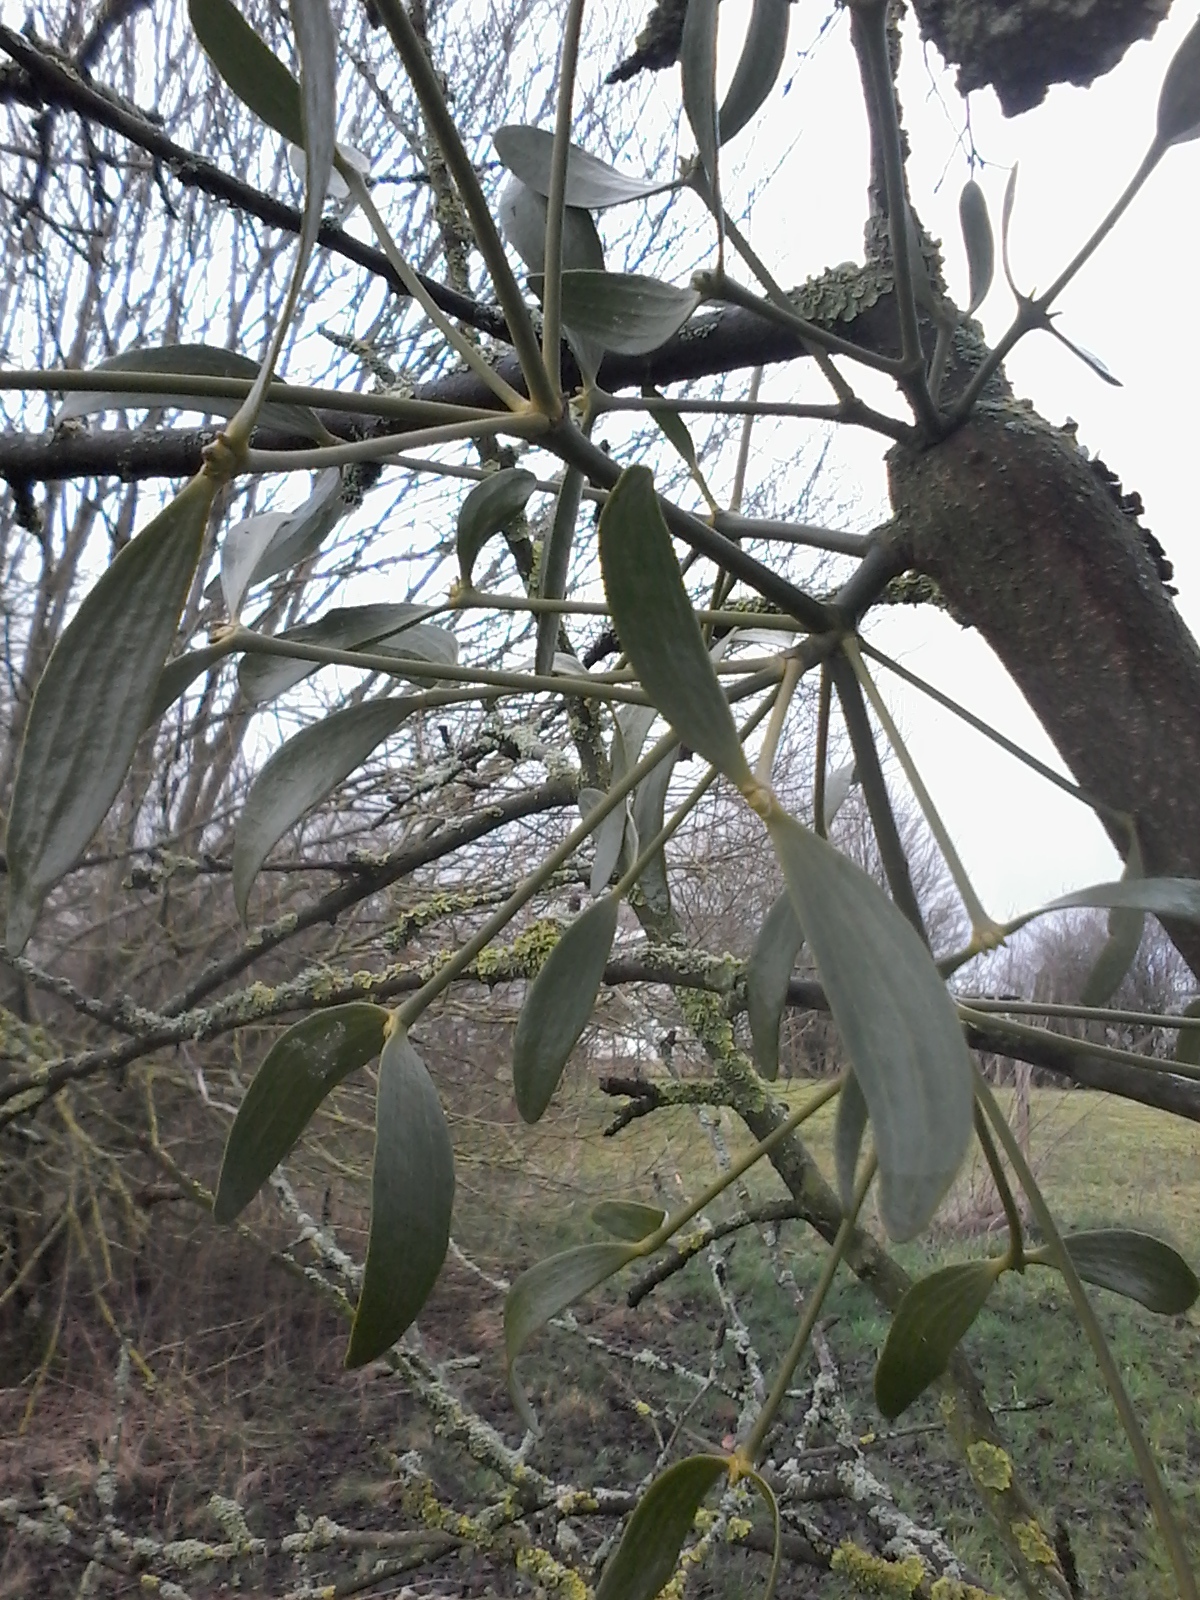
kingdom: Plantae
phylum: Tracheophyta
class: Magnoliopsida
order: Santalales
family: Viscaceae
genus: Viscum
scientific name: Viscum album
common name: Mistletoe
